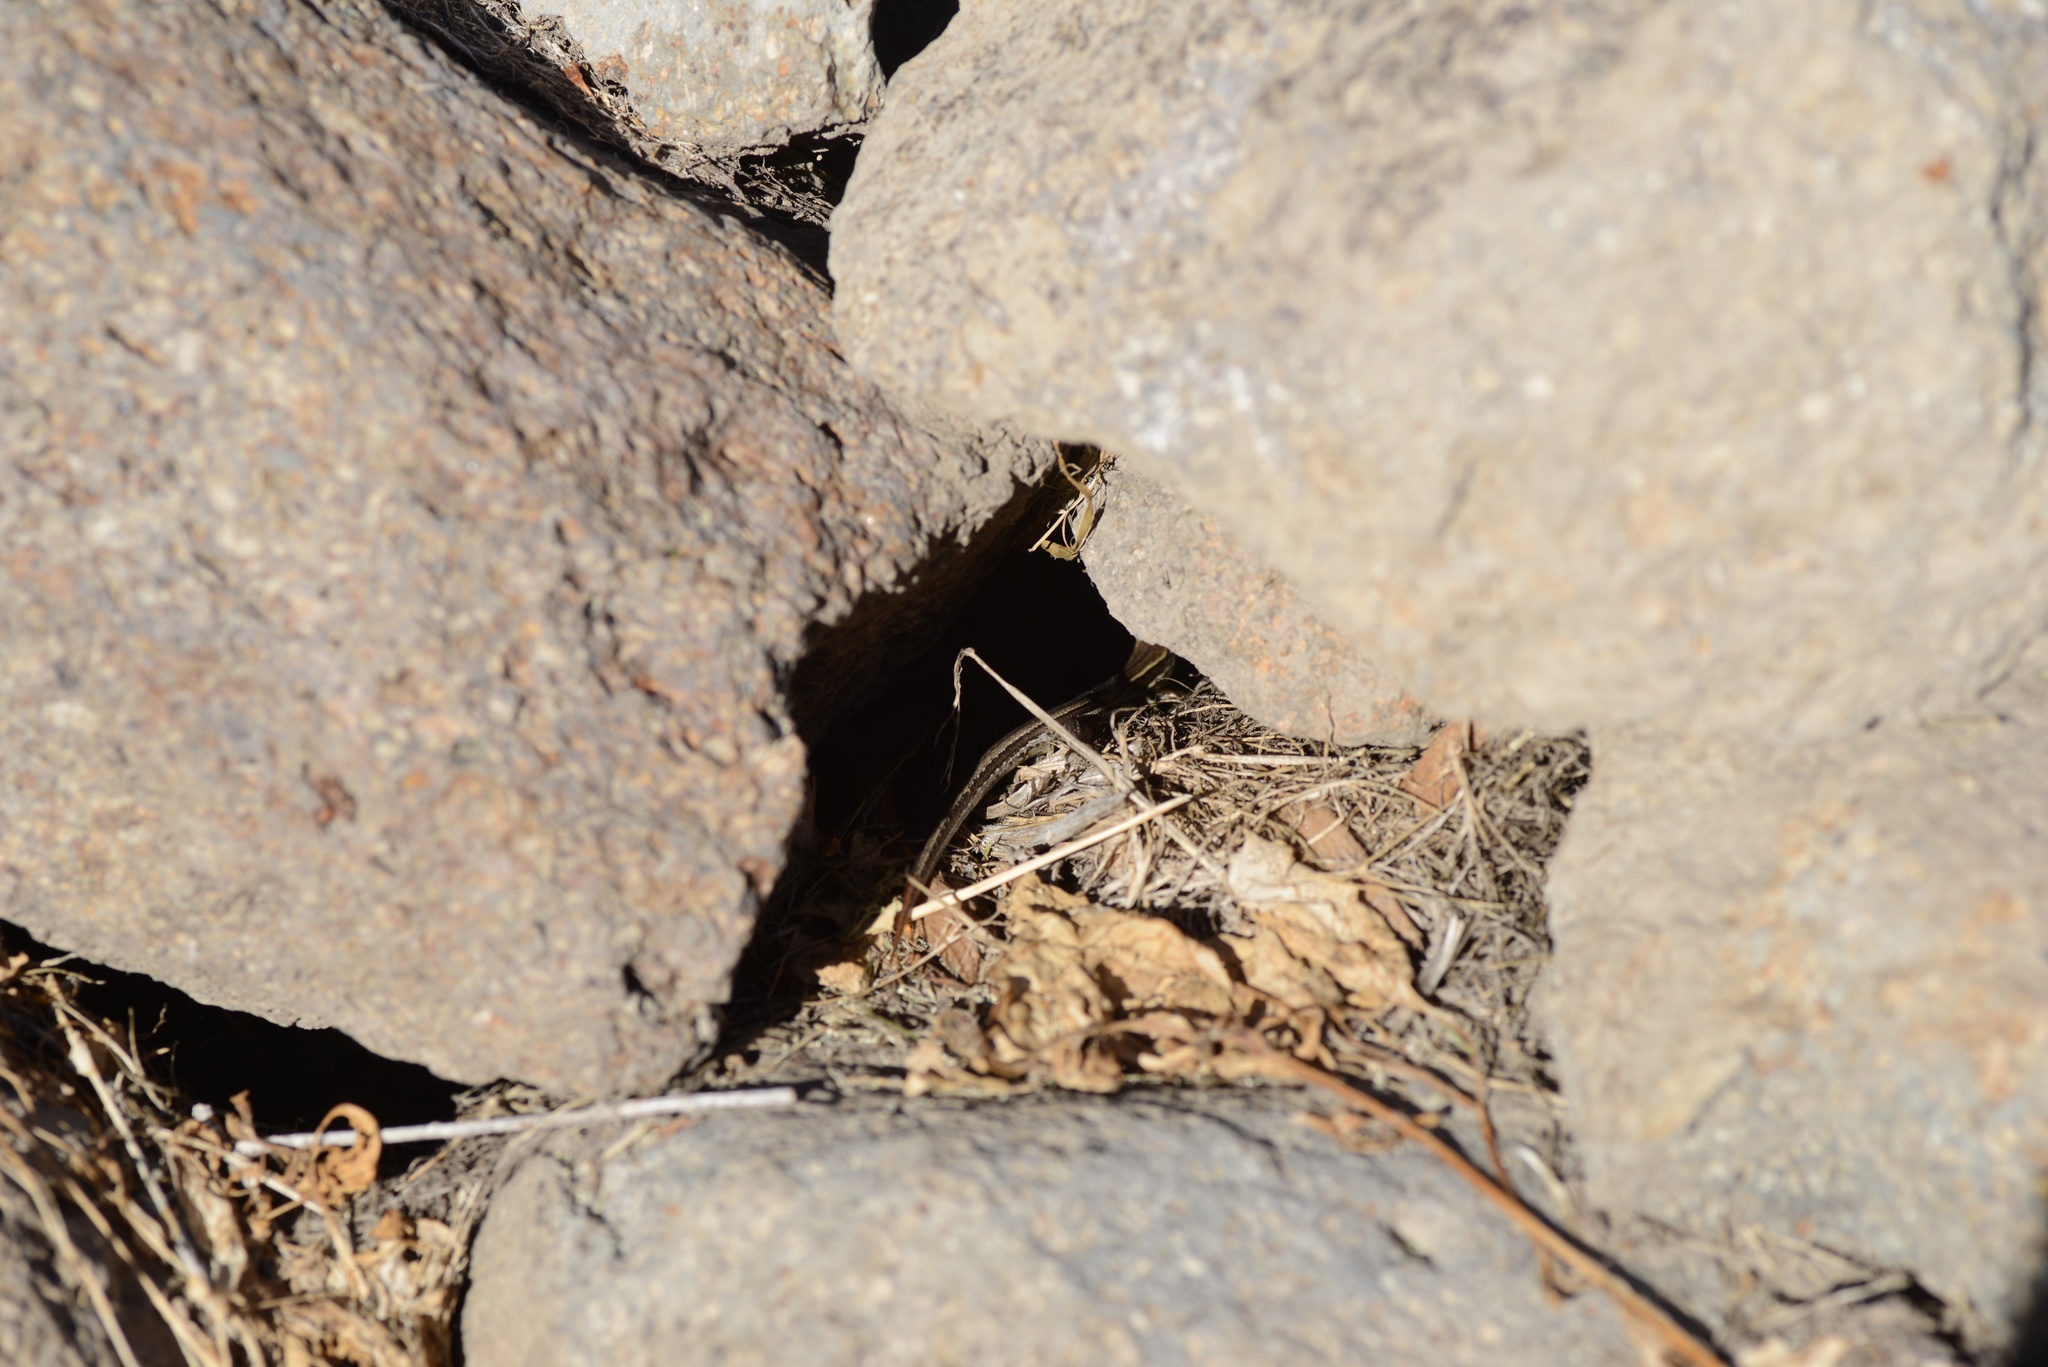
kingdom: Animalia
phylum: Chordata
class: Squamata
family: Scincidae
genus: Oligosoma
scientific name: Oligosoma polychroma
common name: Common new zealand skink
